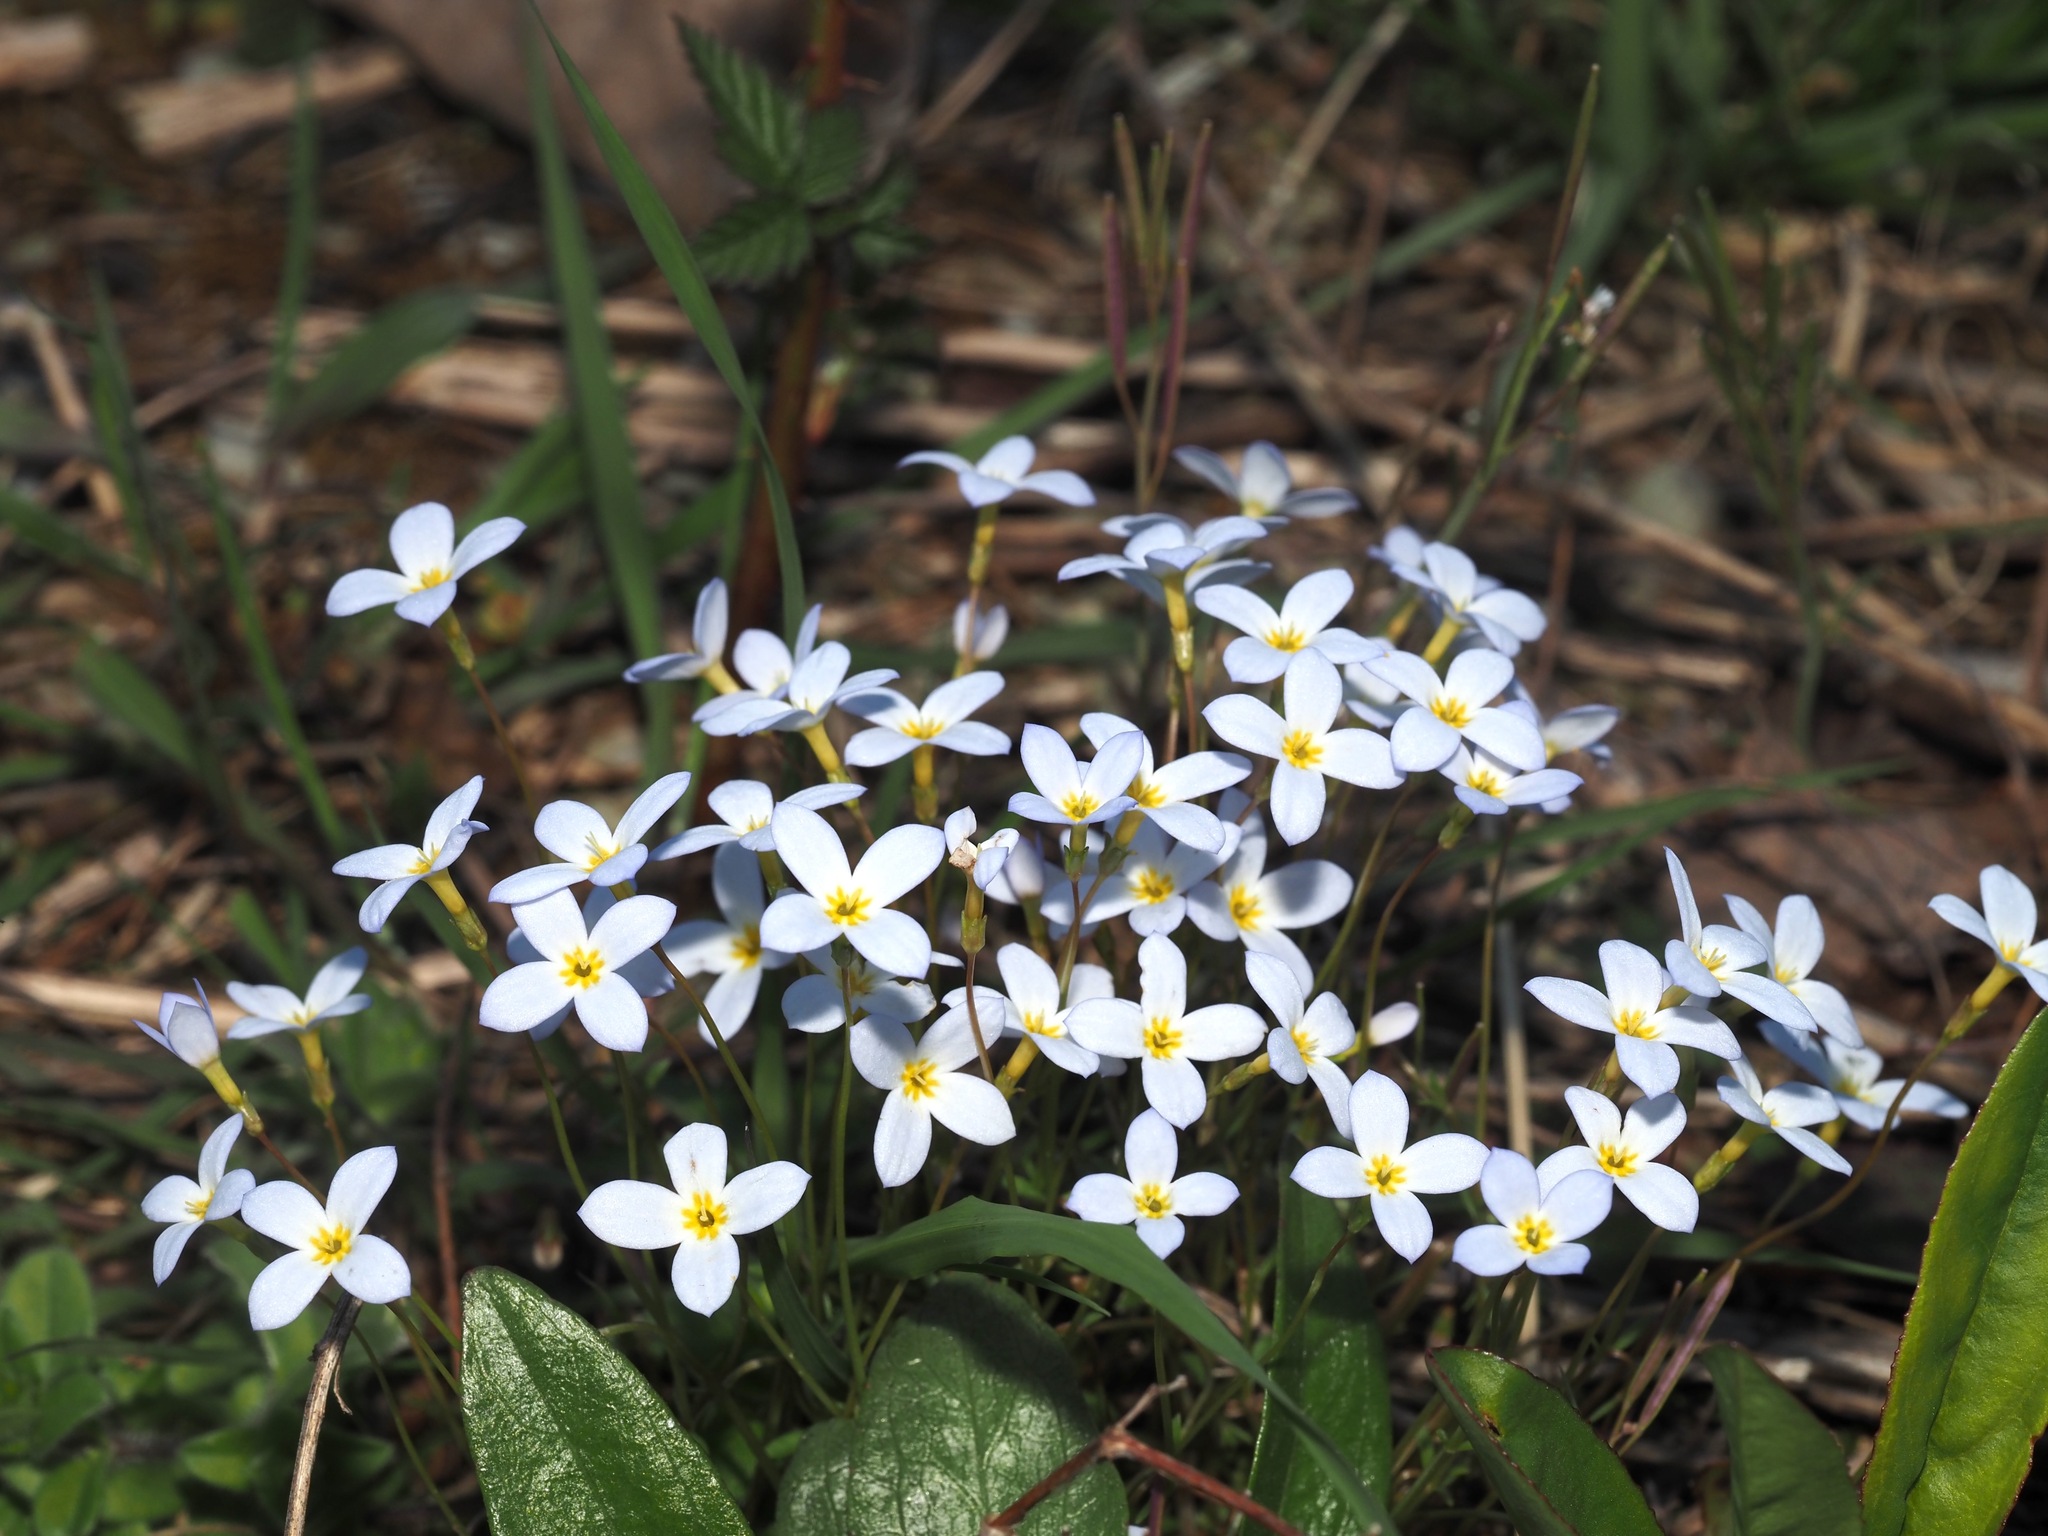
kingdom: Plantae
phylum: Tracheophyta
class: Magnoliopsida
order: Gentianales
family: Rubiaceae
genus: Houstonia
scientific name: Houstonia caerulea
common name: Bluets
